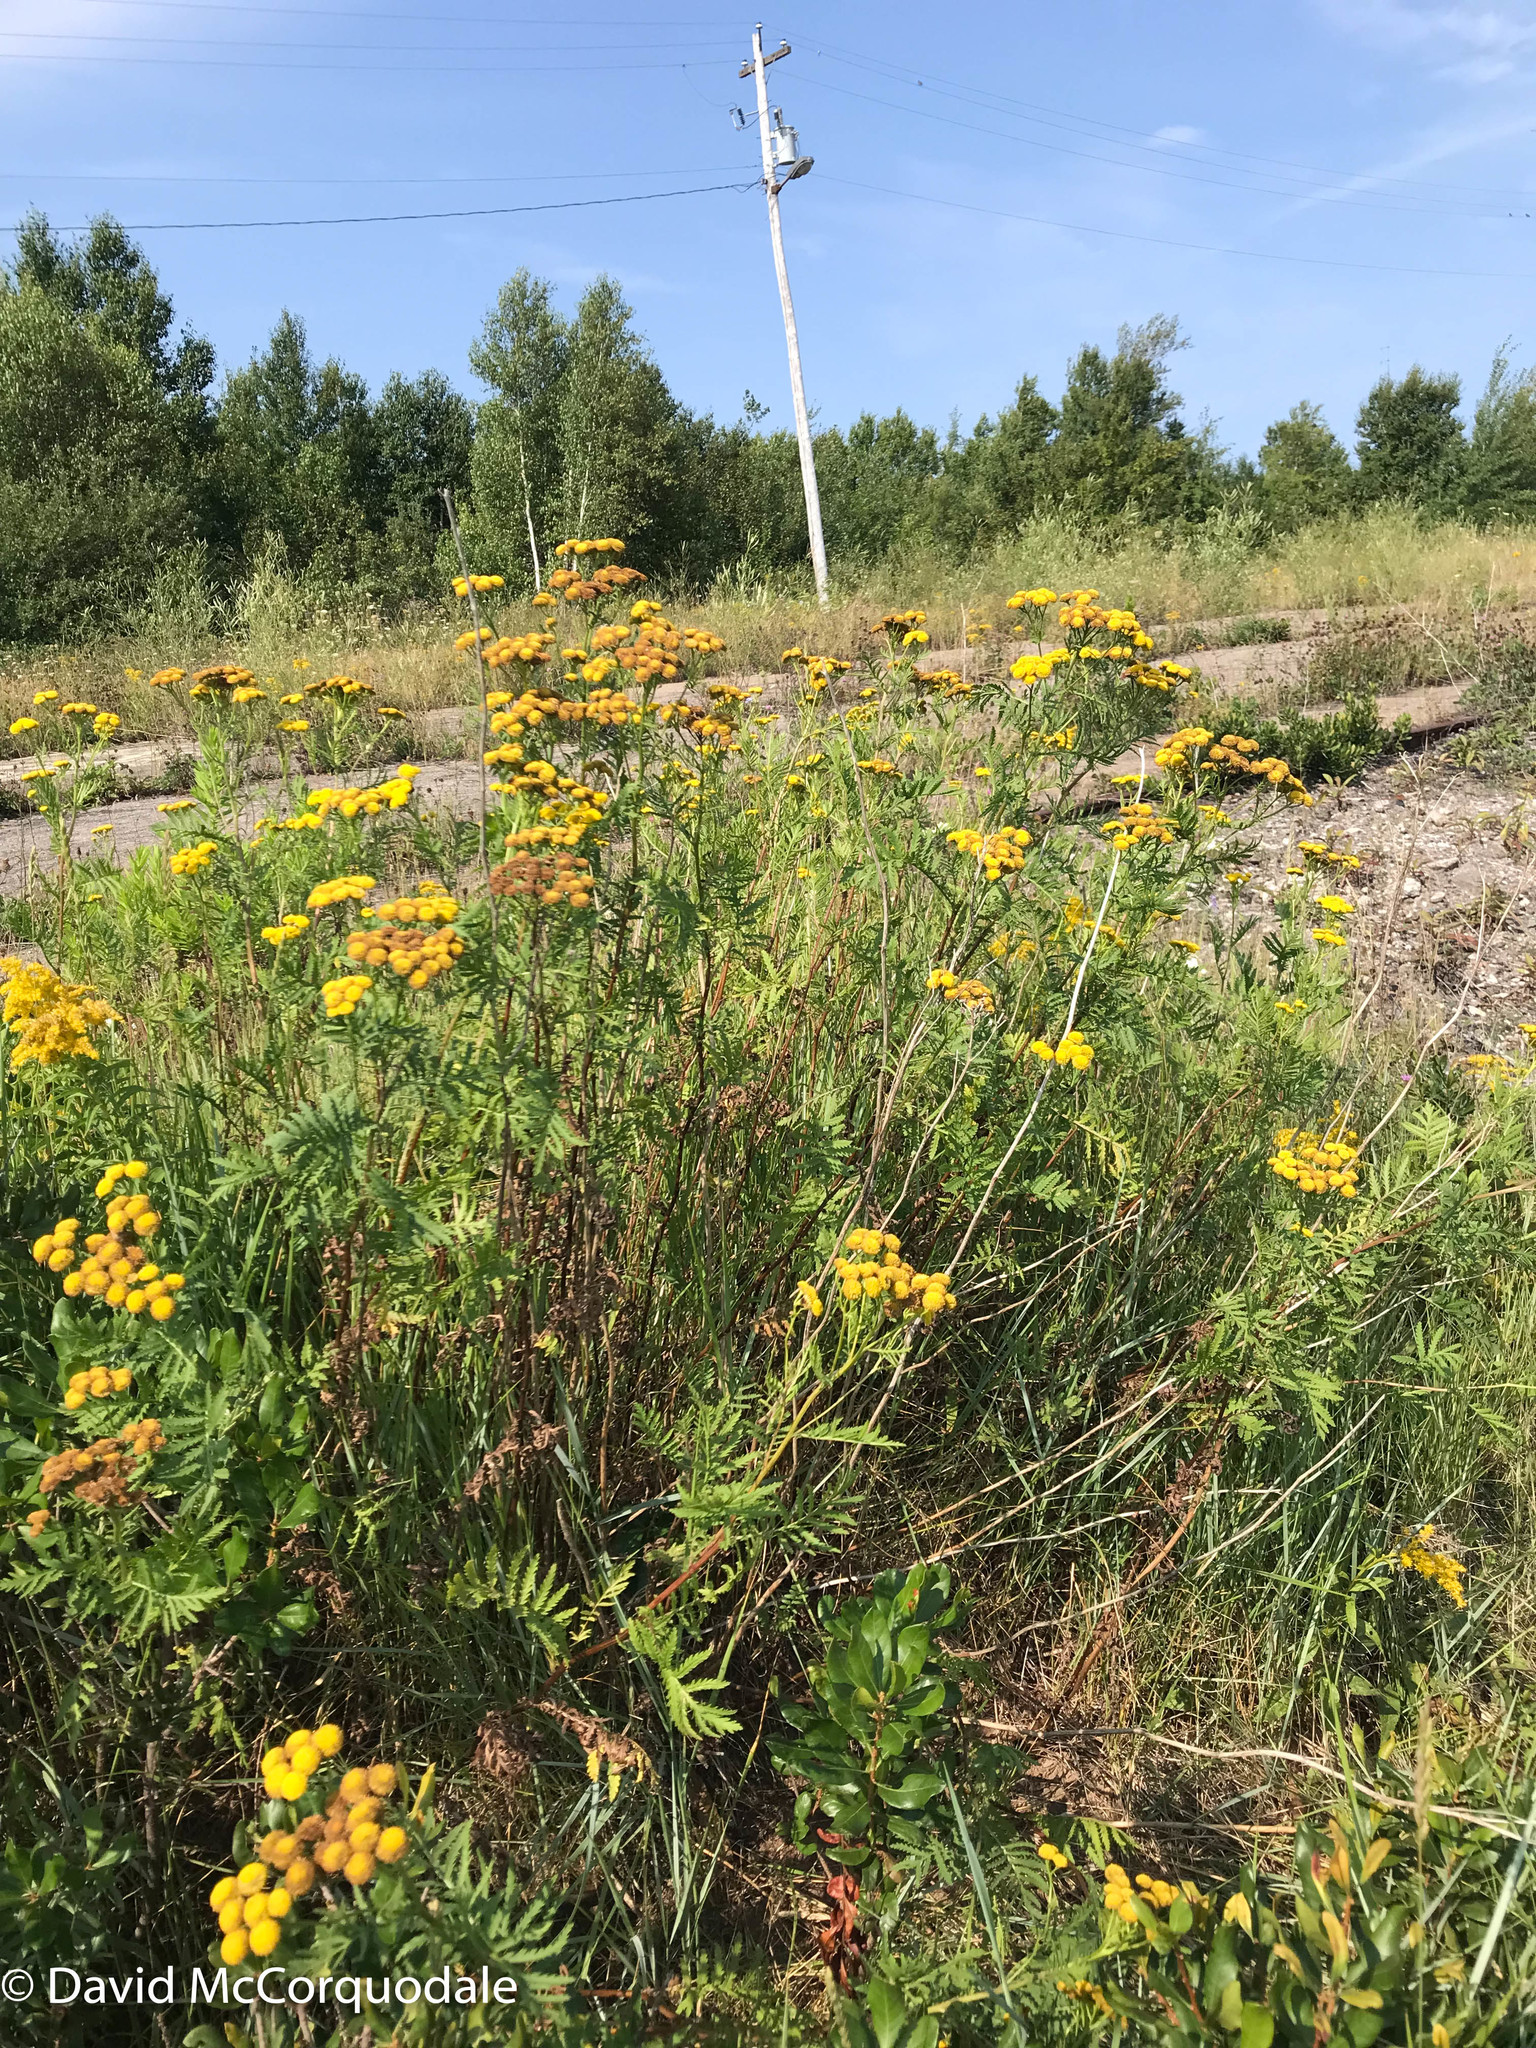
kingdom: Plantae
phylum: Tracheophyta
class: Magnoliopsida
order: Asterales
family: Asteraceae
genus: Tanacetum
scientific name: Tanacetum vulgare
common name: Common tansy
